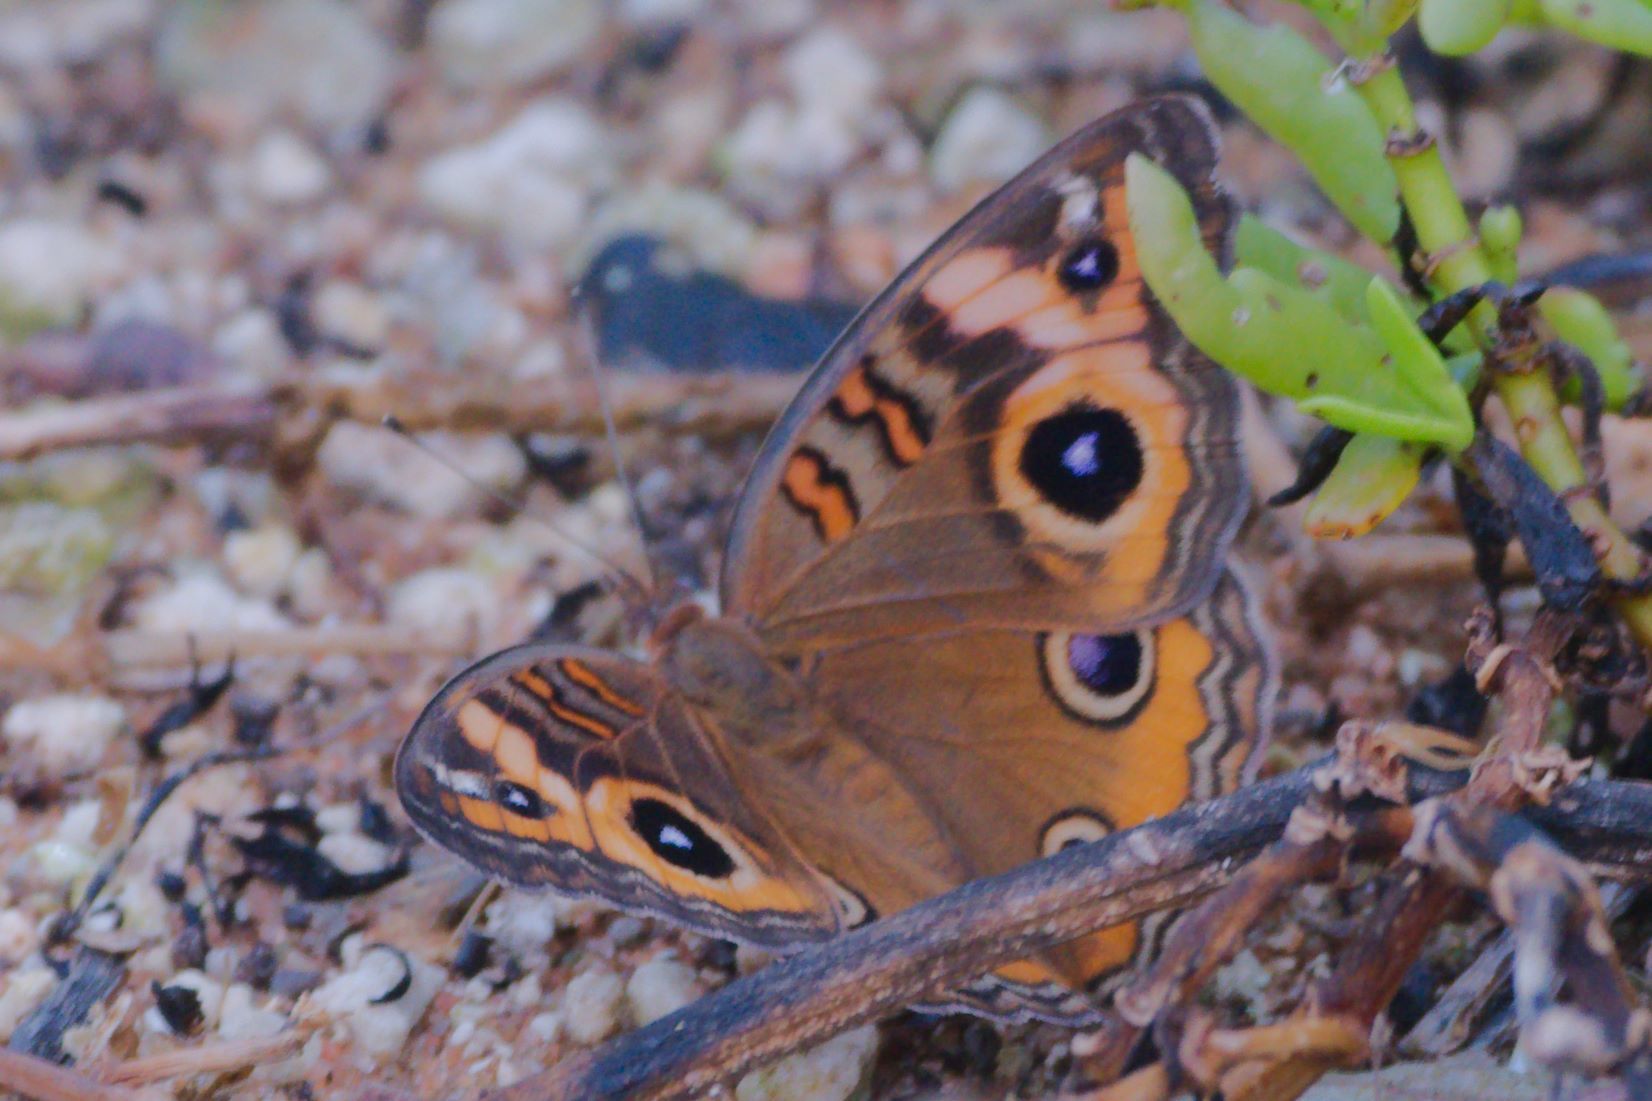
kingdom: Animalia
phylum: Arthropoda
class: Insecta
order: Lepidoptera
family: Nymphalidae
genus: Junonia
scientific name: Junonia neildi
